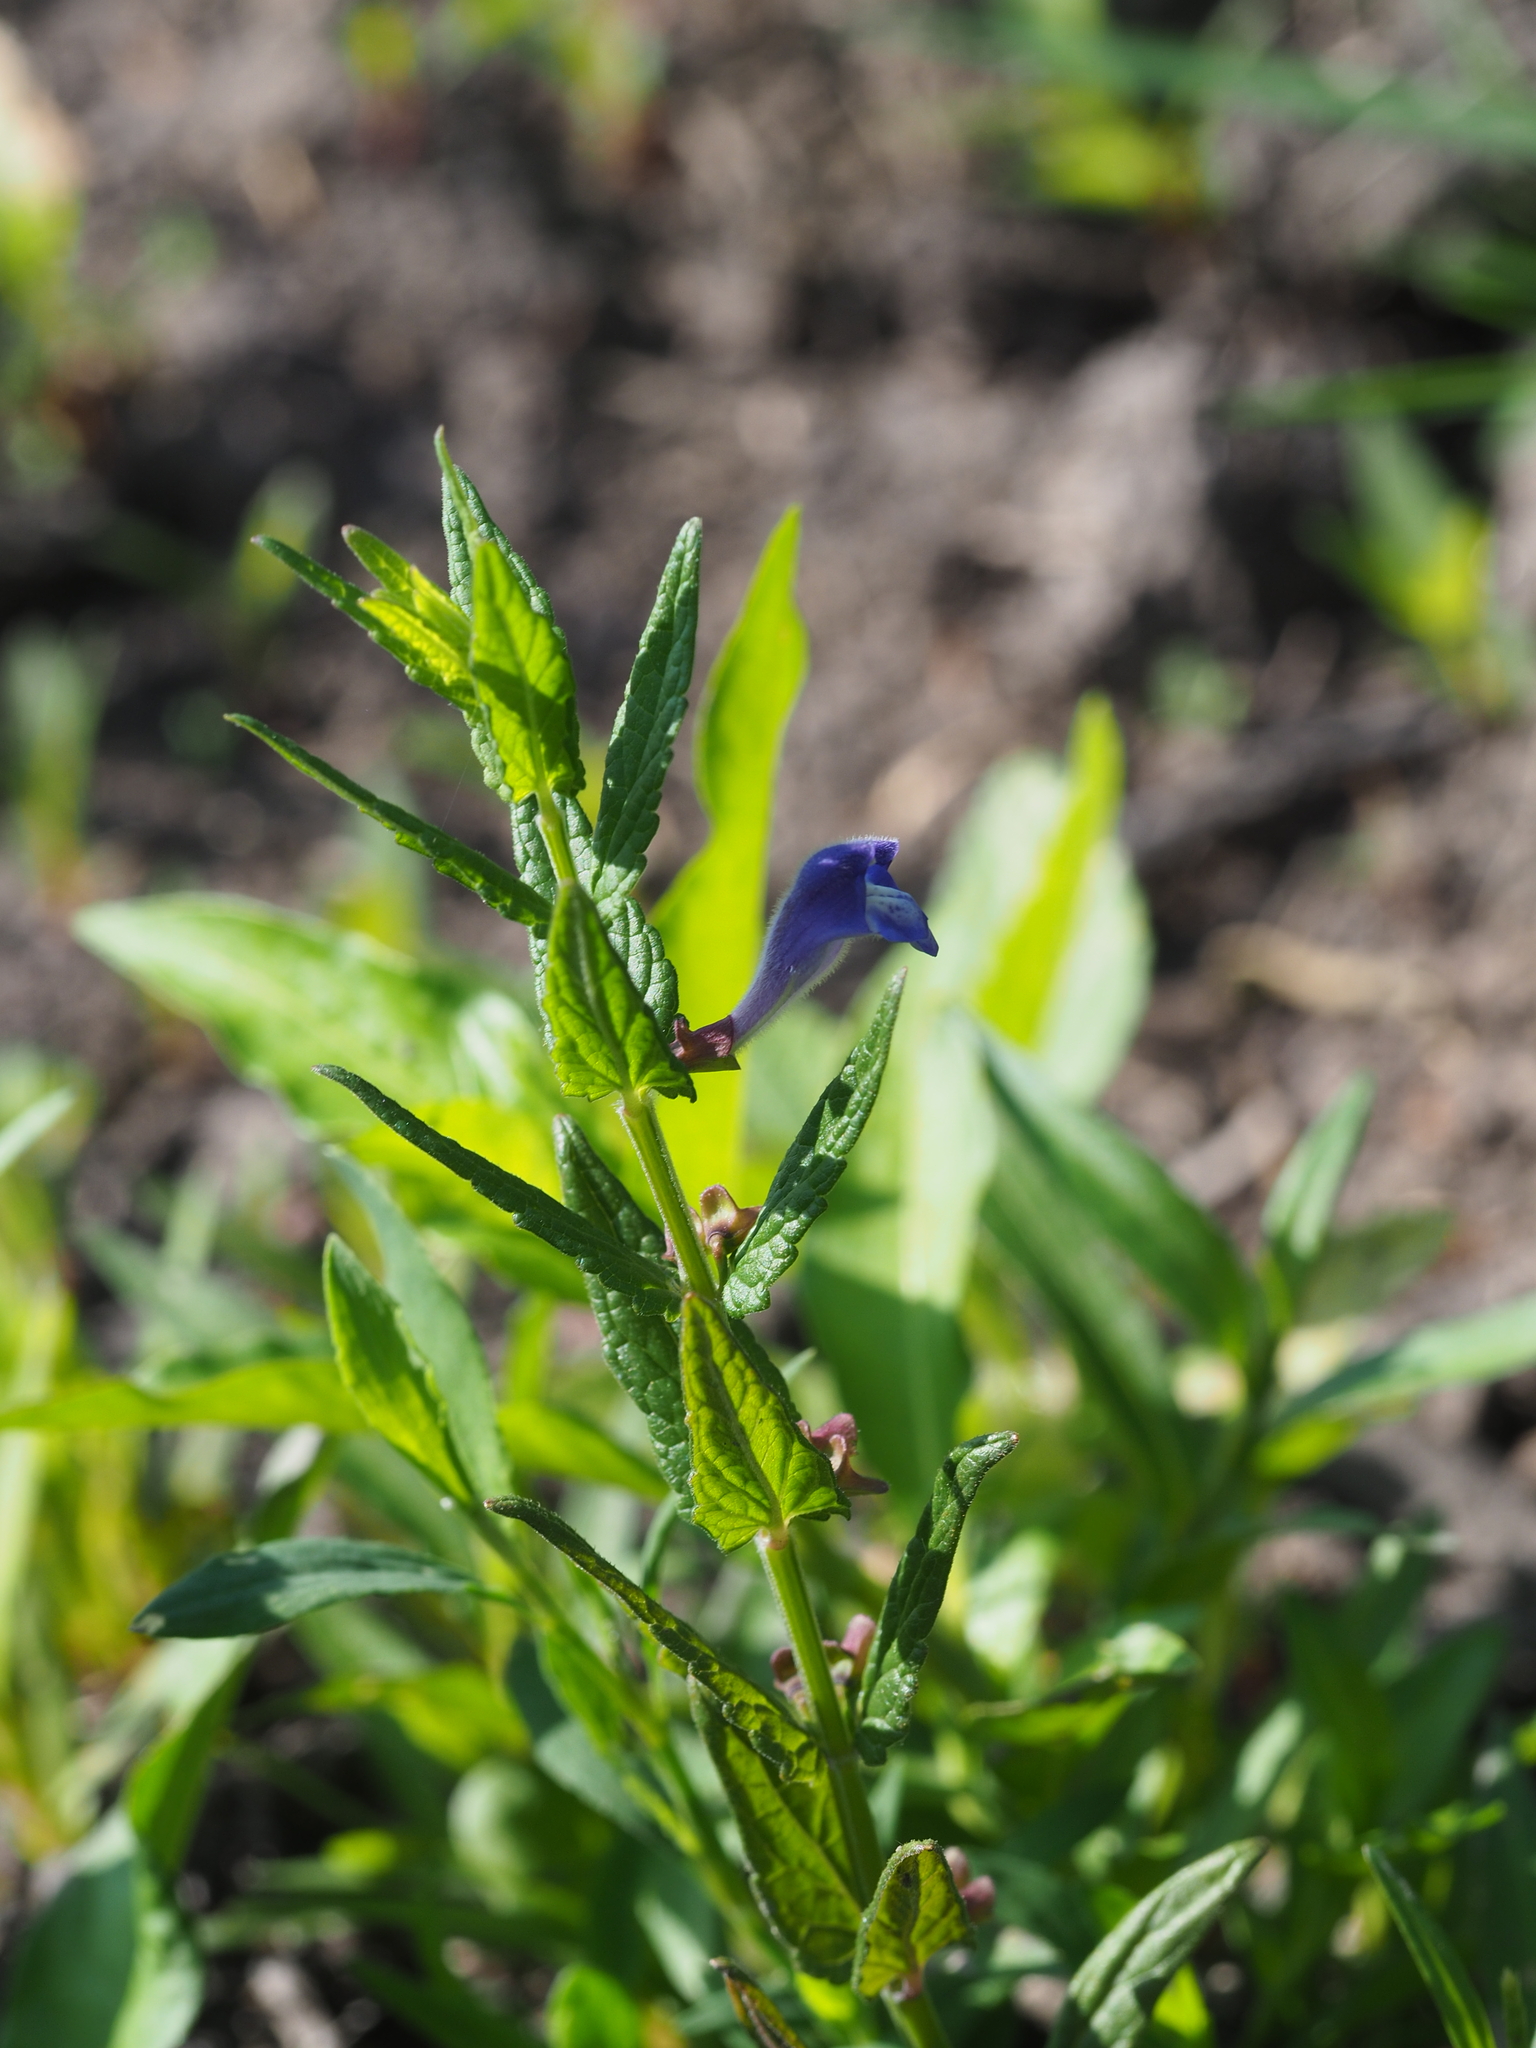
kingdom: Plantae
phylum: Tracheophyta
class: Magnoliopsida
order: Lamiales
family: Lamiaceae
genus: Scutellaria
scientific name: Scutellaria galericulata
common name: Skullcap
